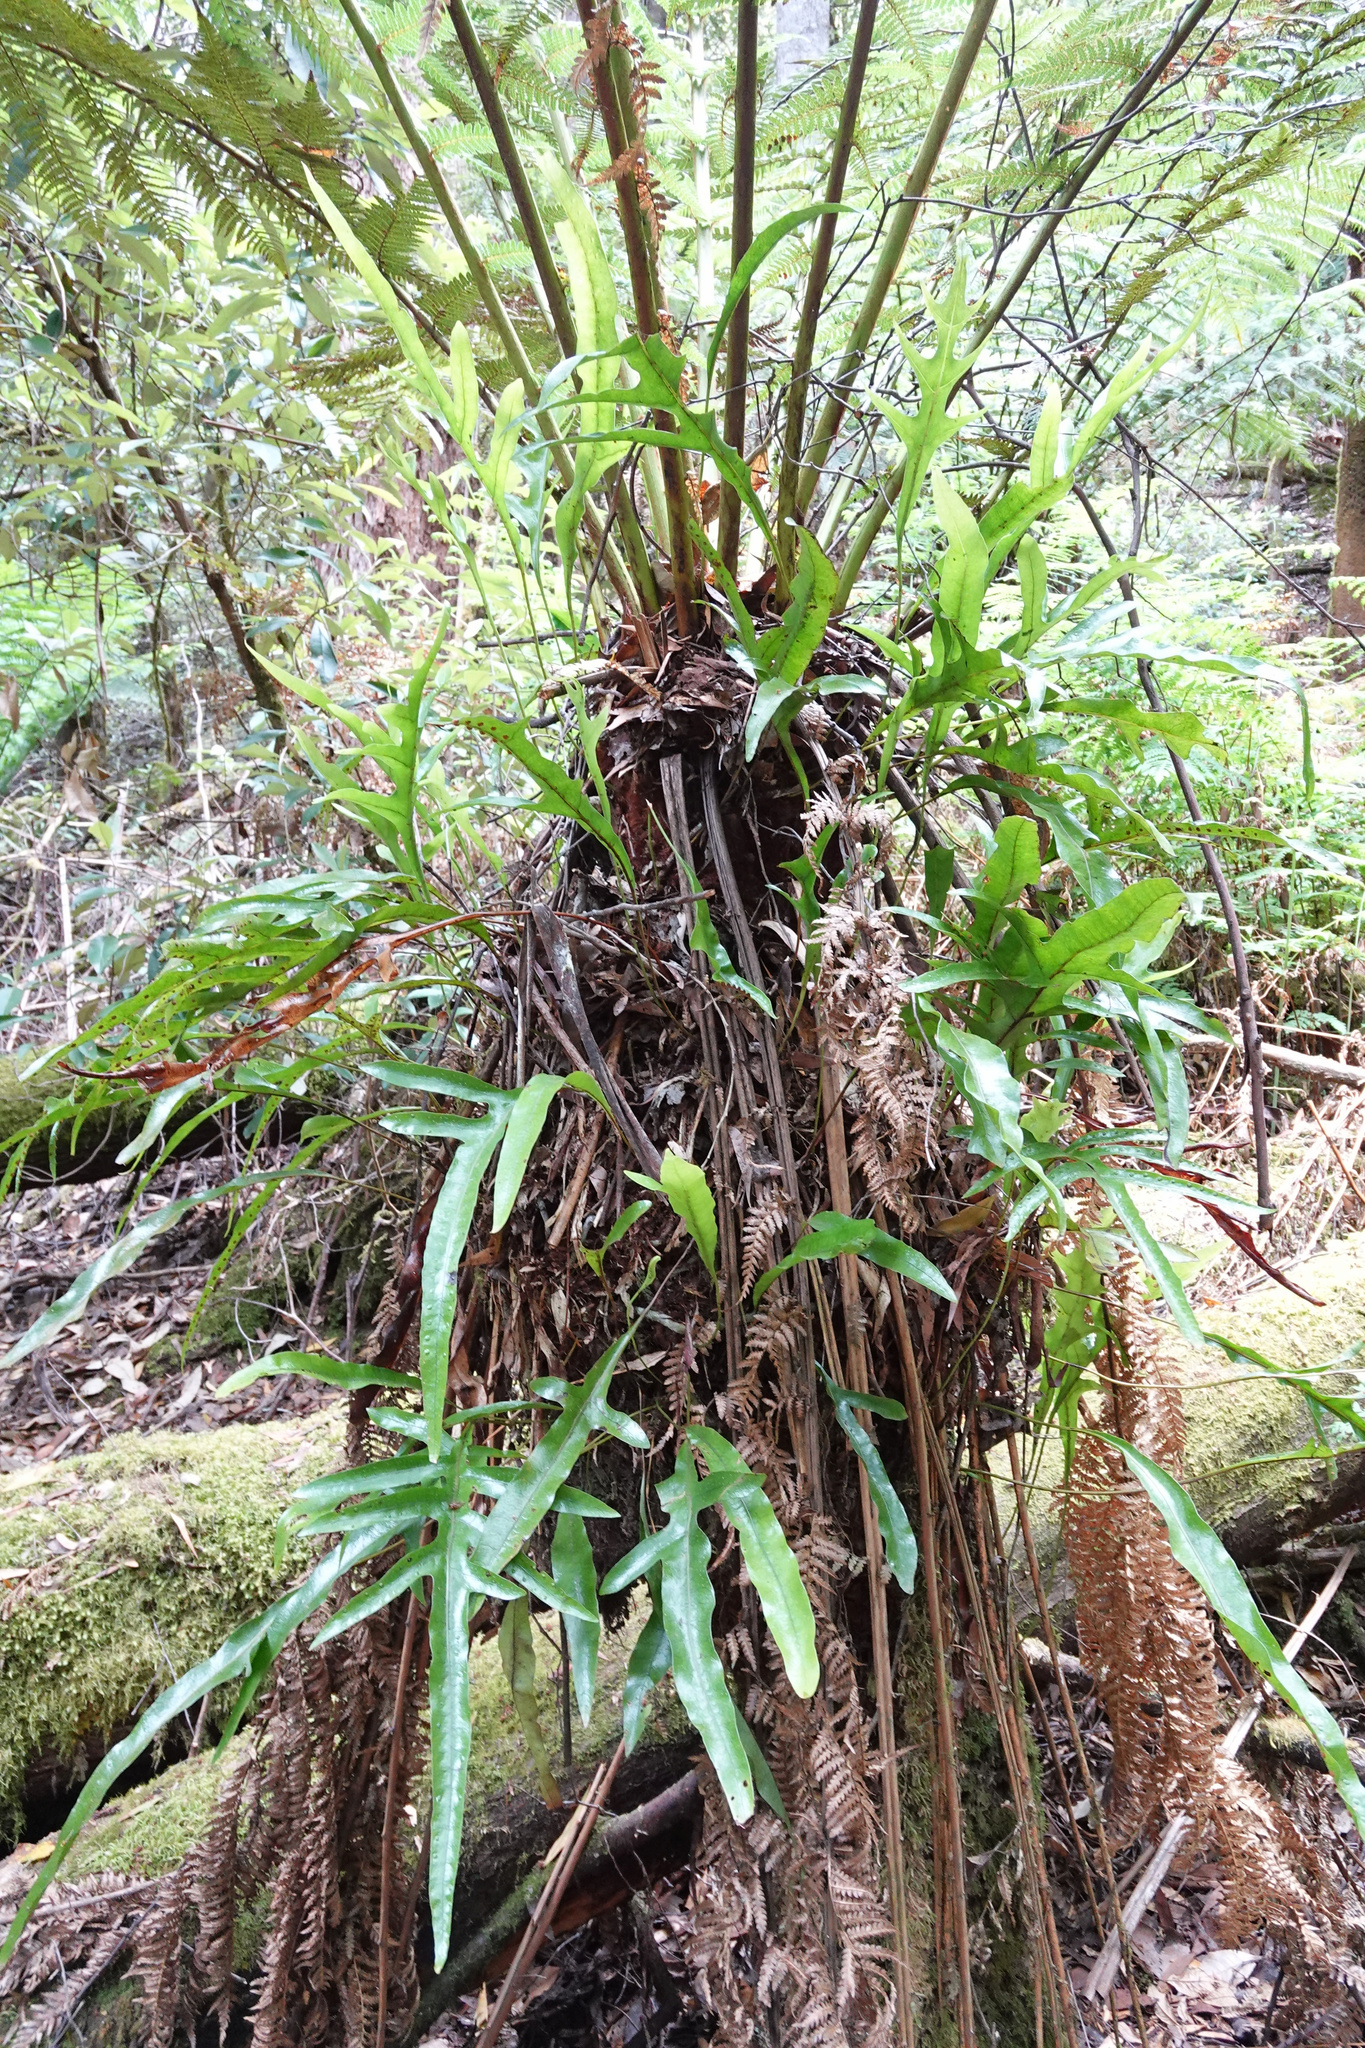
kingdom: Plantae
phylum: Tracheophyta
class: Polypodiopsida
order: Polypodiales
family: Polypodiaceae
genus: Lecanopteris
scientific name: Lecanopteris pustulata
